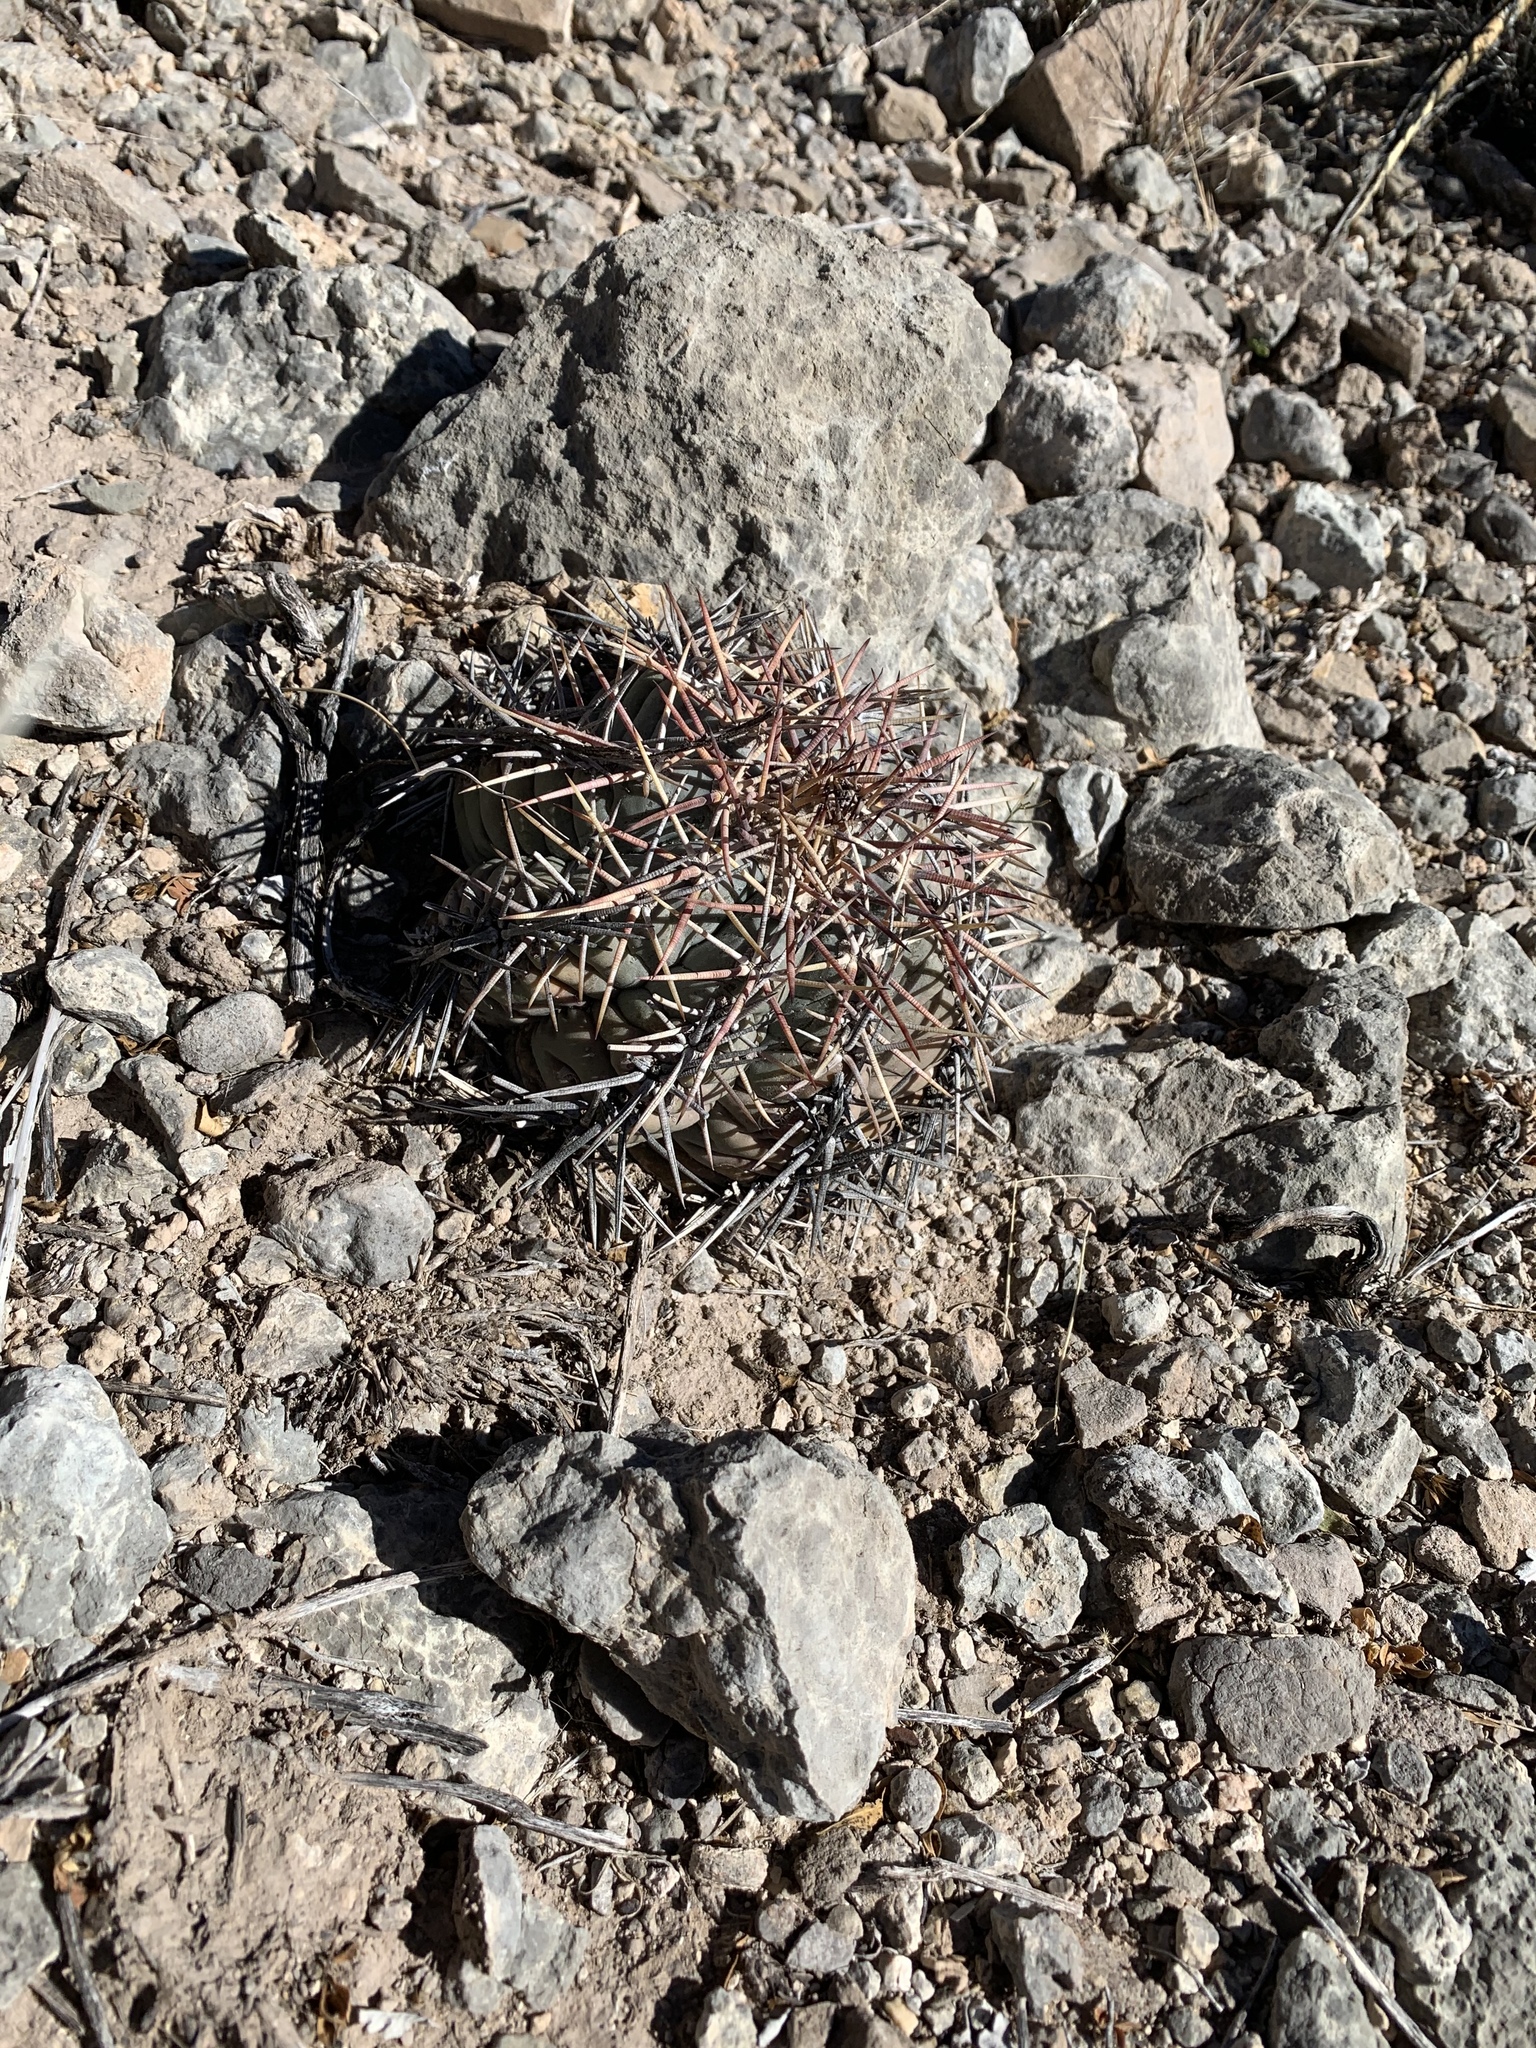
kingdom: Plantae
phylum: Tracheophyta
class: Magnoliopsida
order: Caryophyllales
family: Cactaceae
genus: Echinocactus
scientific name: Echinocactus horizonthalonius
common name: Devilshead
